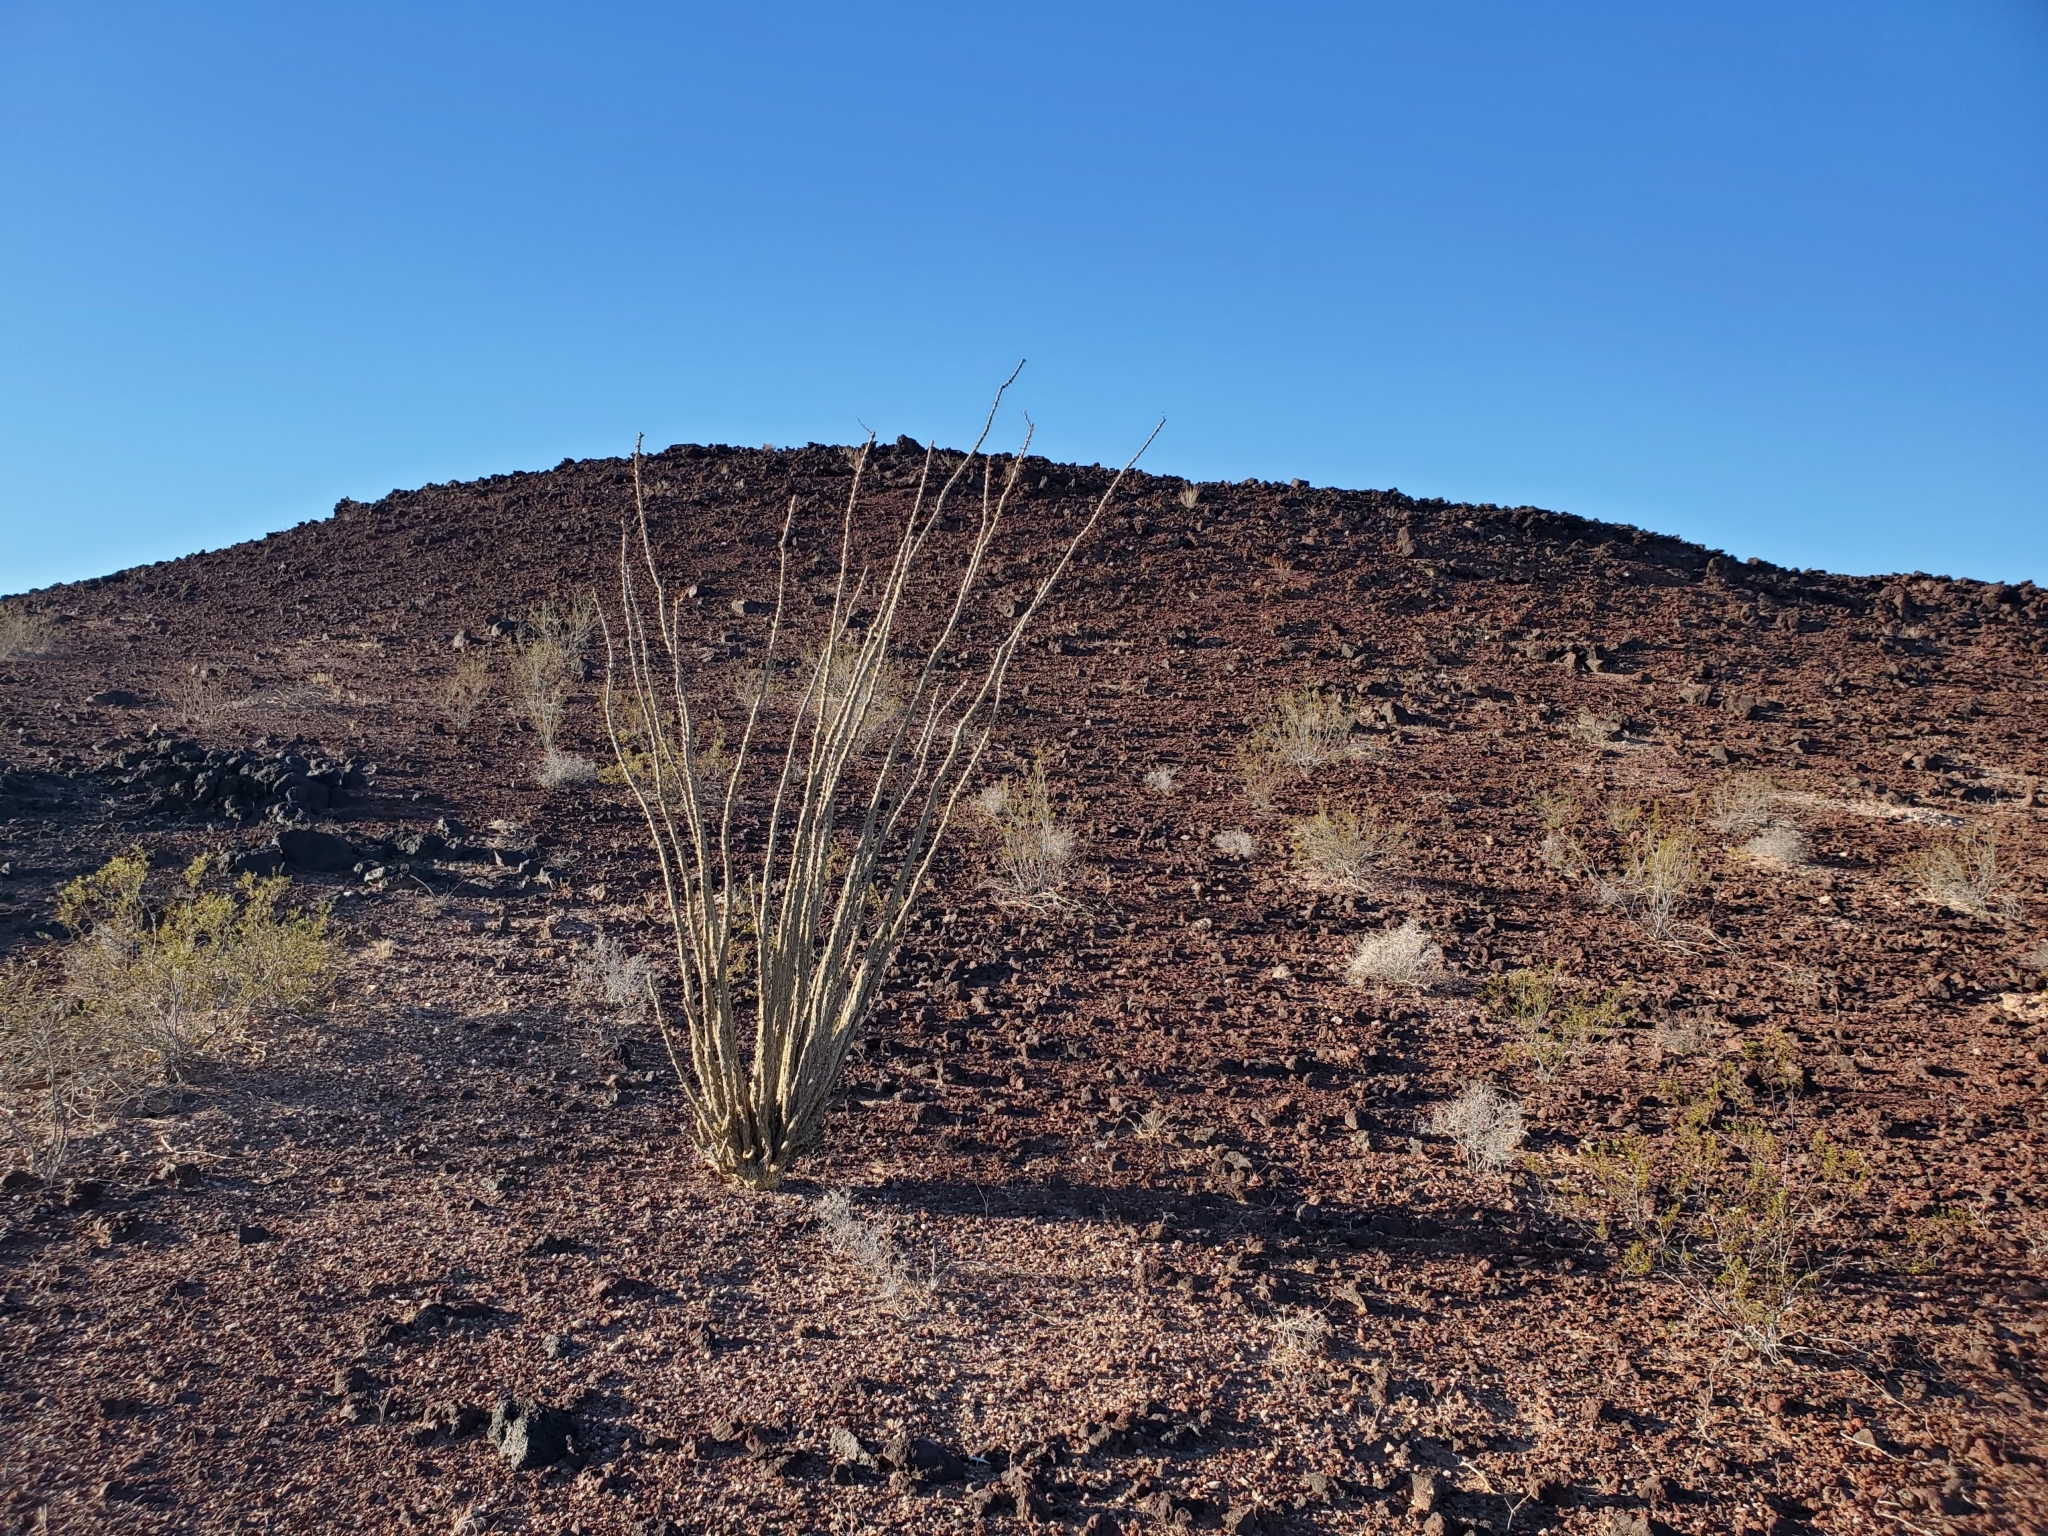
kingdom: Plantae
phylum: Tracheophyta
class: Magnoliopsida
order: Ericales
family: Fouquieriaceae
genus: Fouquieria
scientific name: Fouquieria splendens
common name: Vine-cactus
